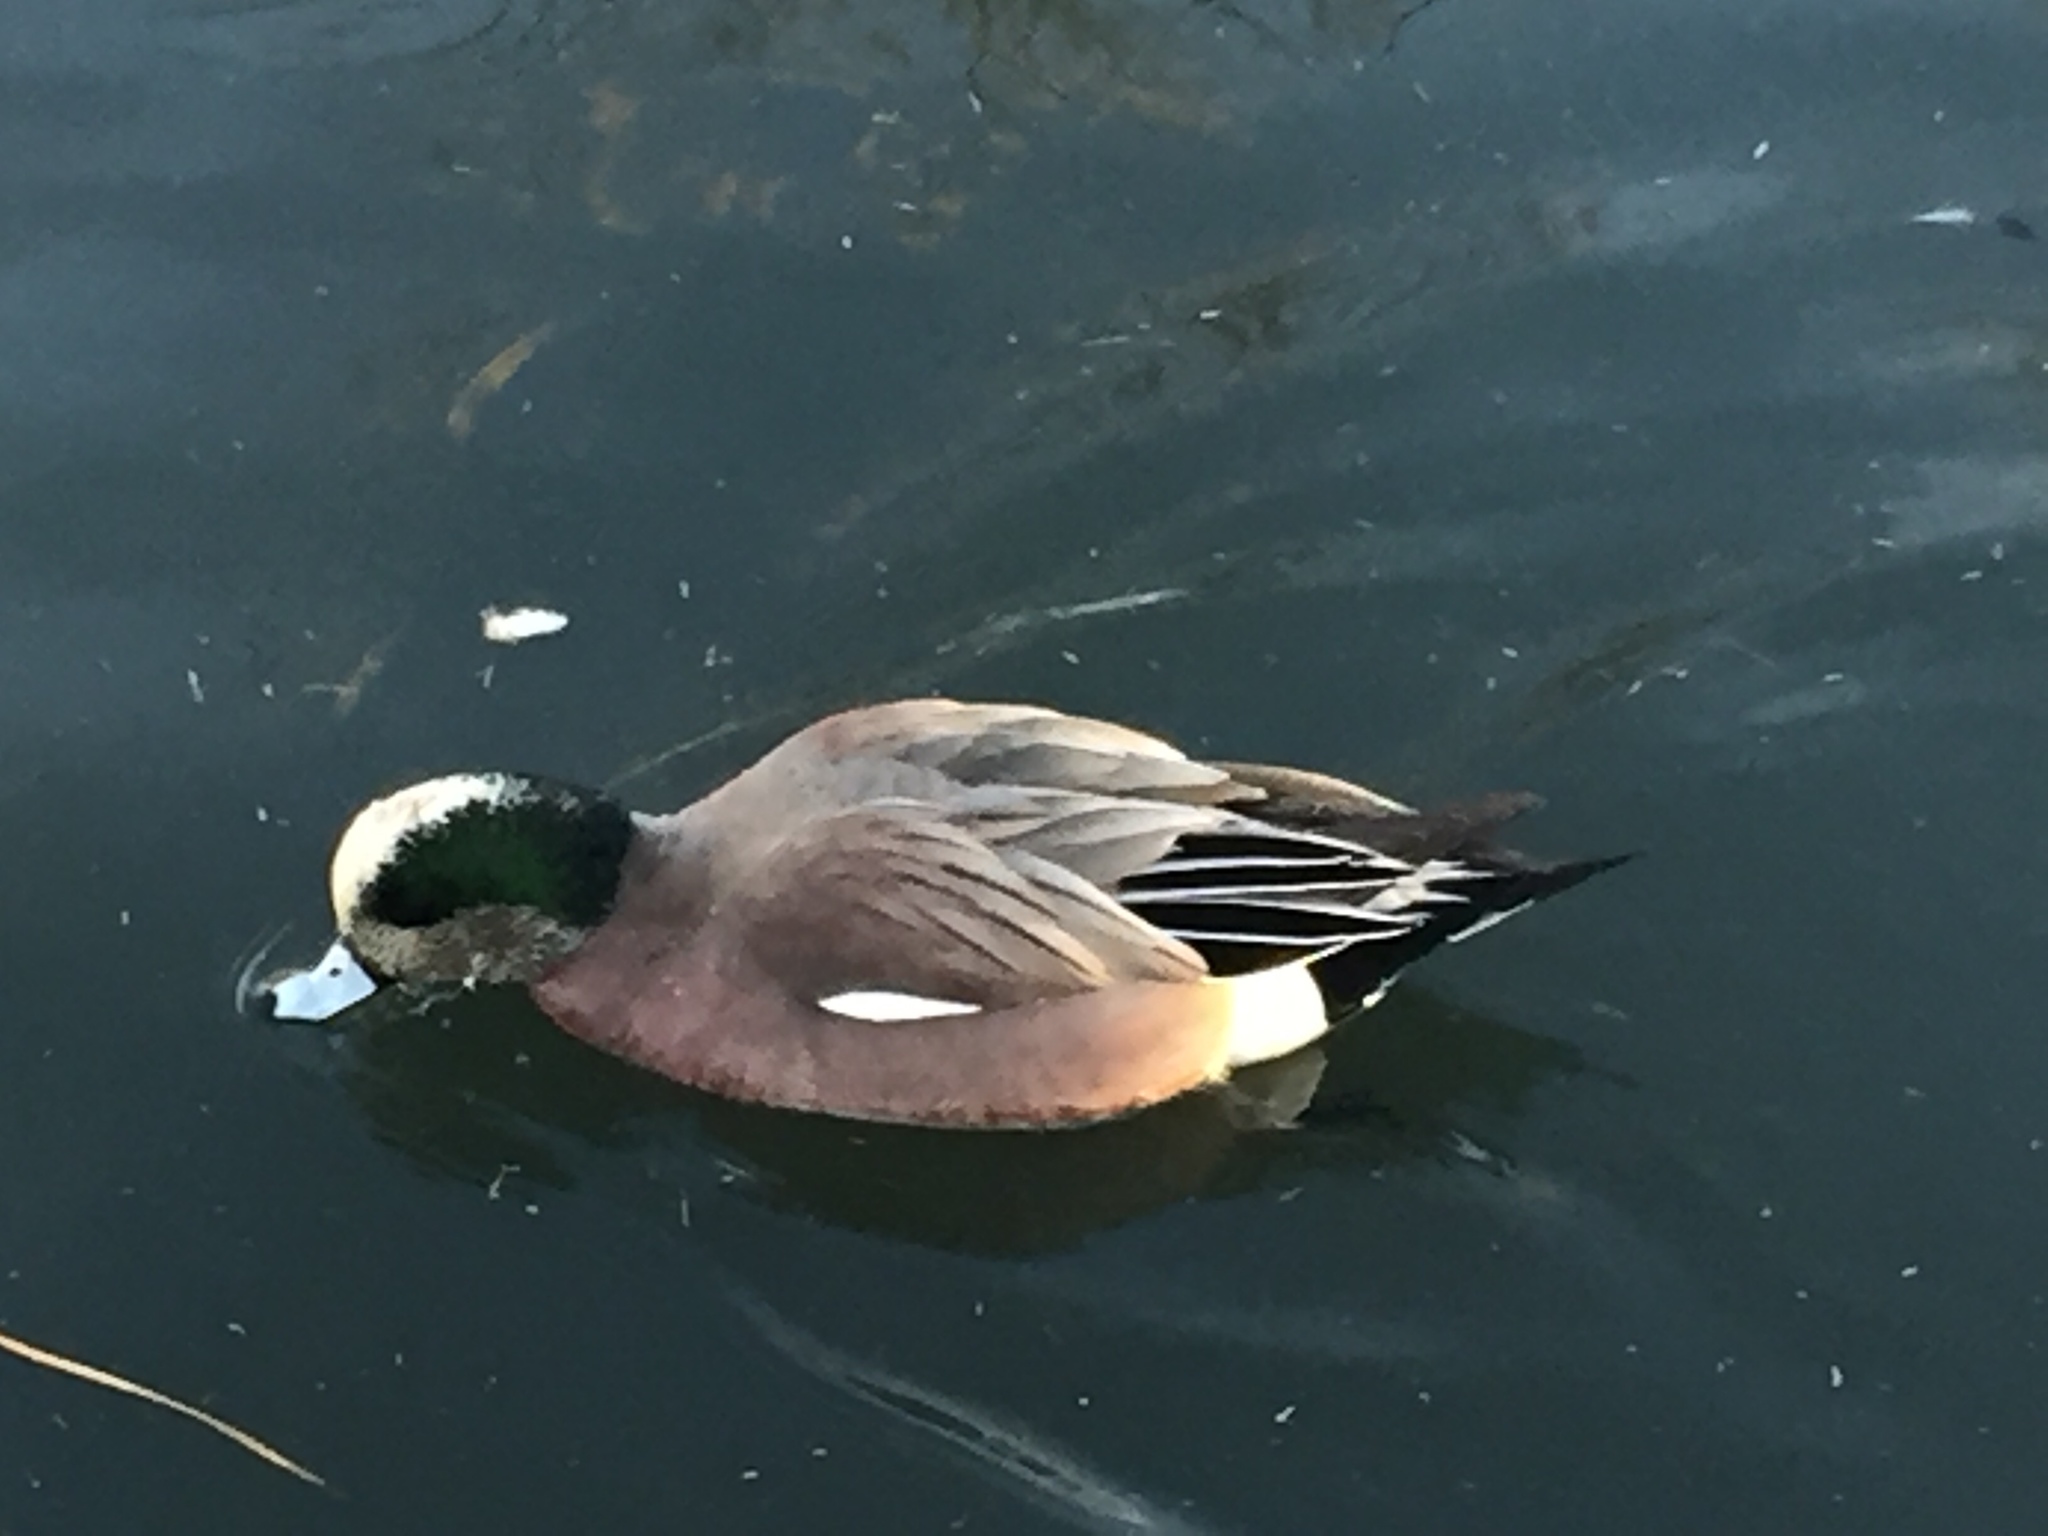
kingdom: Animalia
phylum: Chordata
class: Aves
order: Anseriformes
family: Anatidae
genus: Mareca
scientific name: Mareca americana
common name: American wigeon
